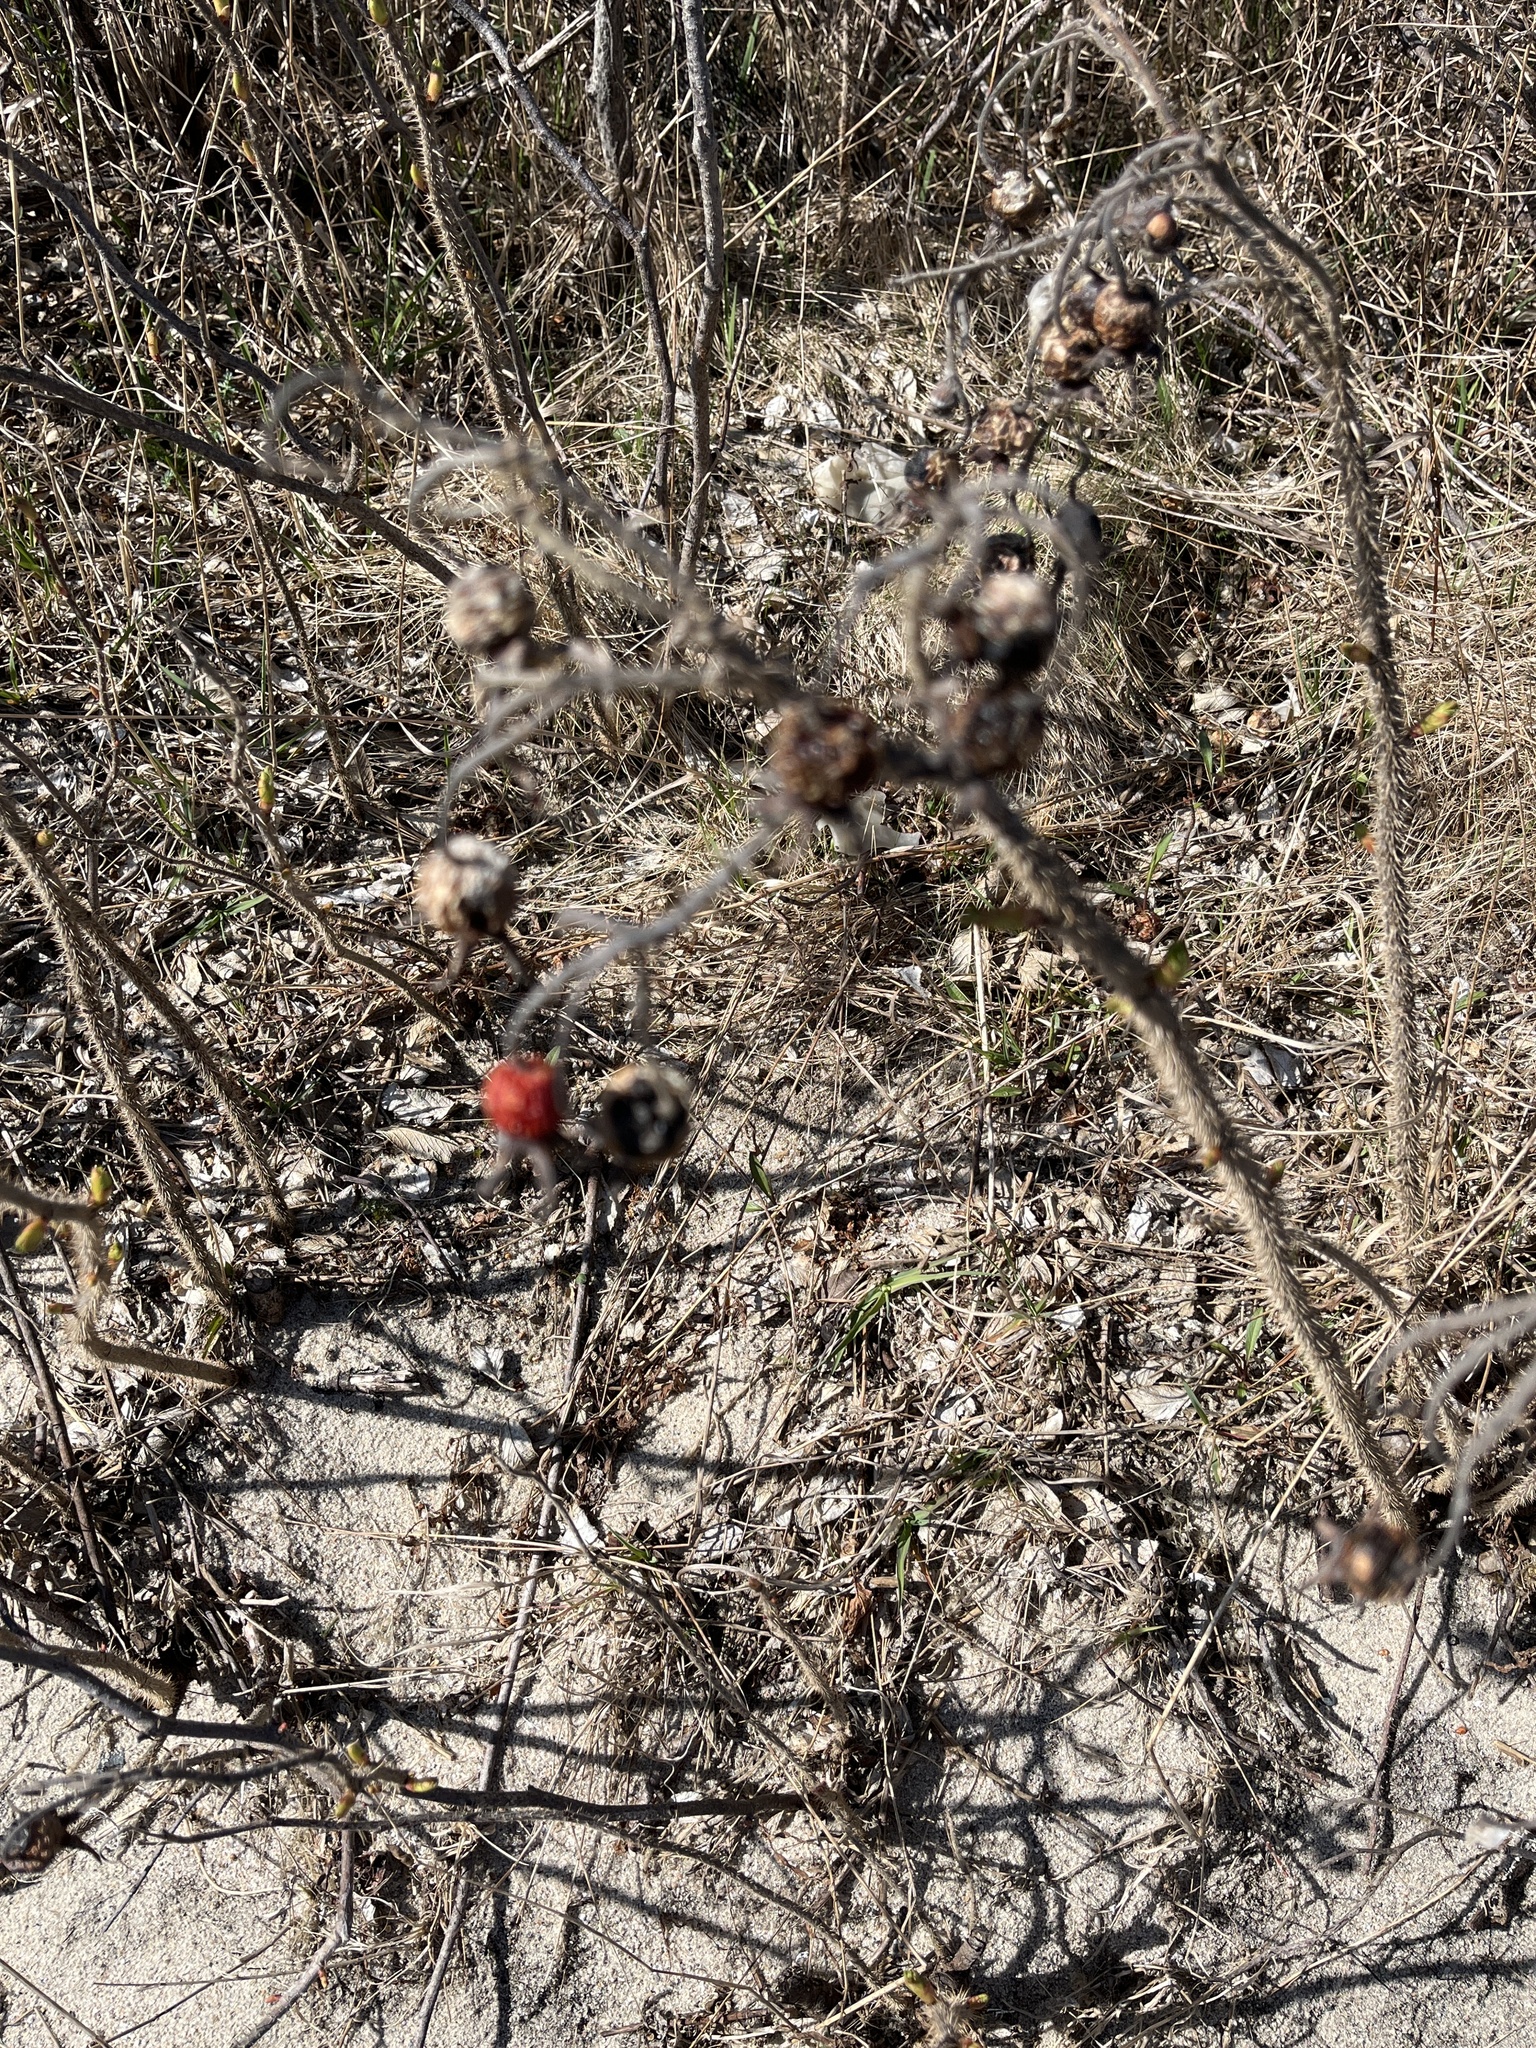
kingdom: Plantae
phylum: Tracheophyta
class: Magnoliopsida
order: Rosales
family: Rosaceae
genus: Rosa
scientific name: Rosa rugosa
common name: Japanese rose
